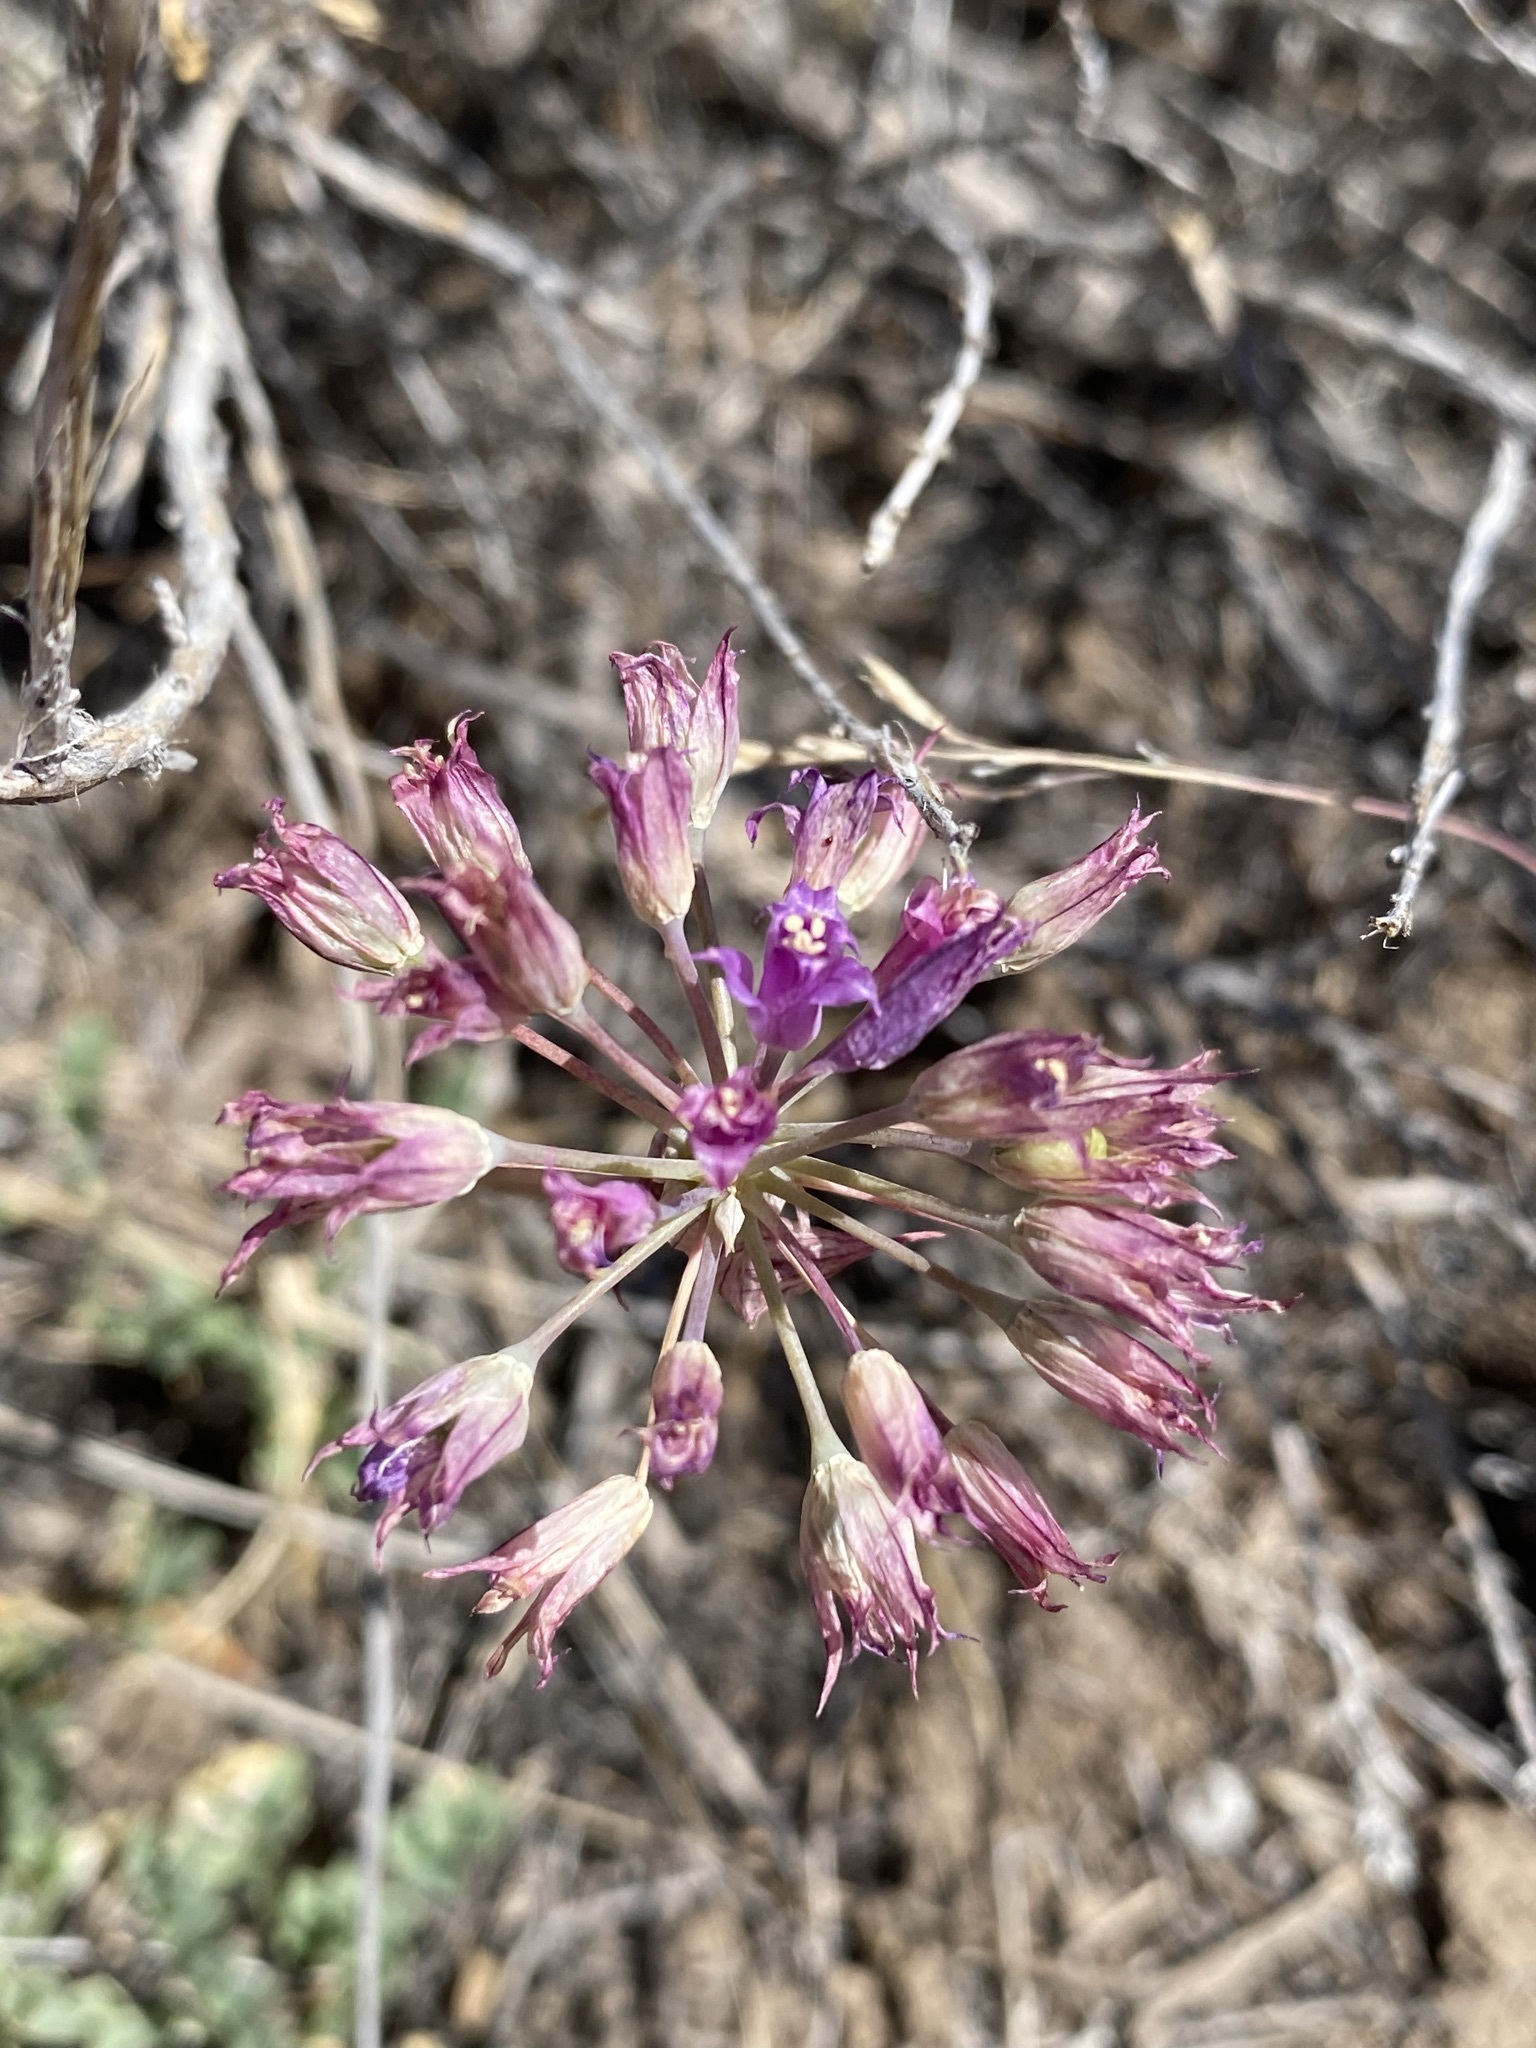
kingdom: Plantae
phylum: Tracheophyta
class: Liliopsida
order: Asparagales
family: Amaryllidaceae
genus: Allium
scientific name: Allium acuminatum
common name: Hooker's onion
